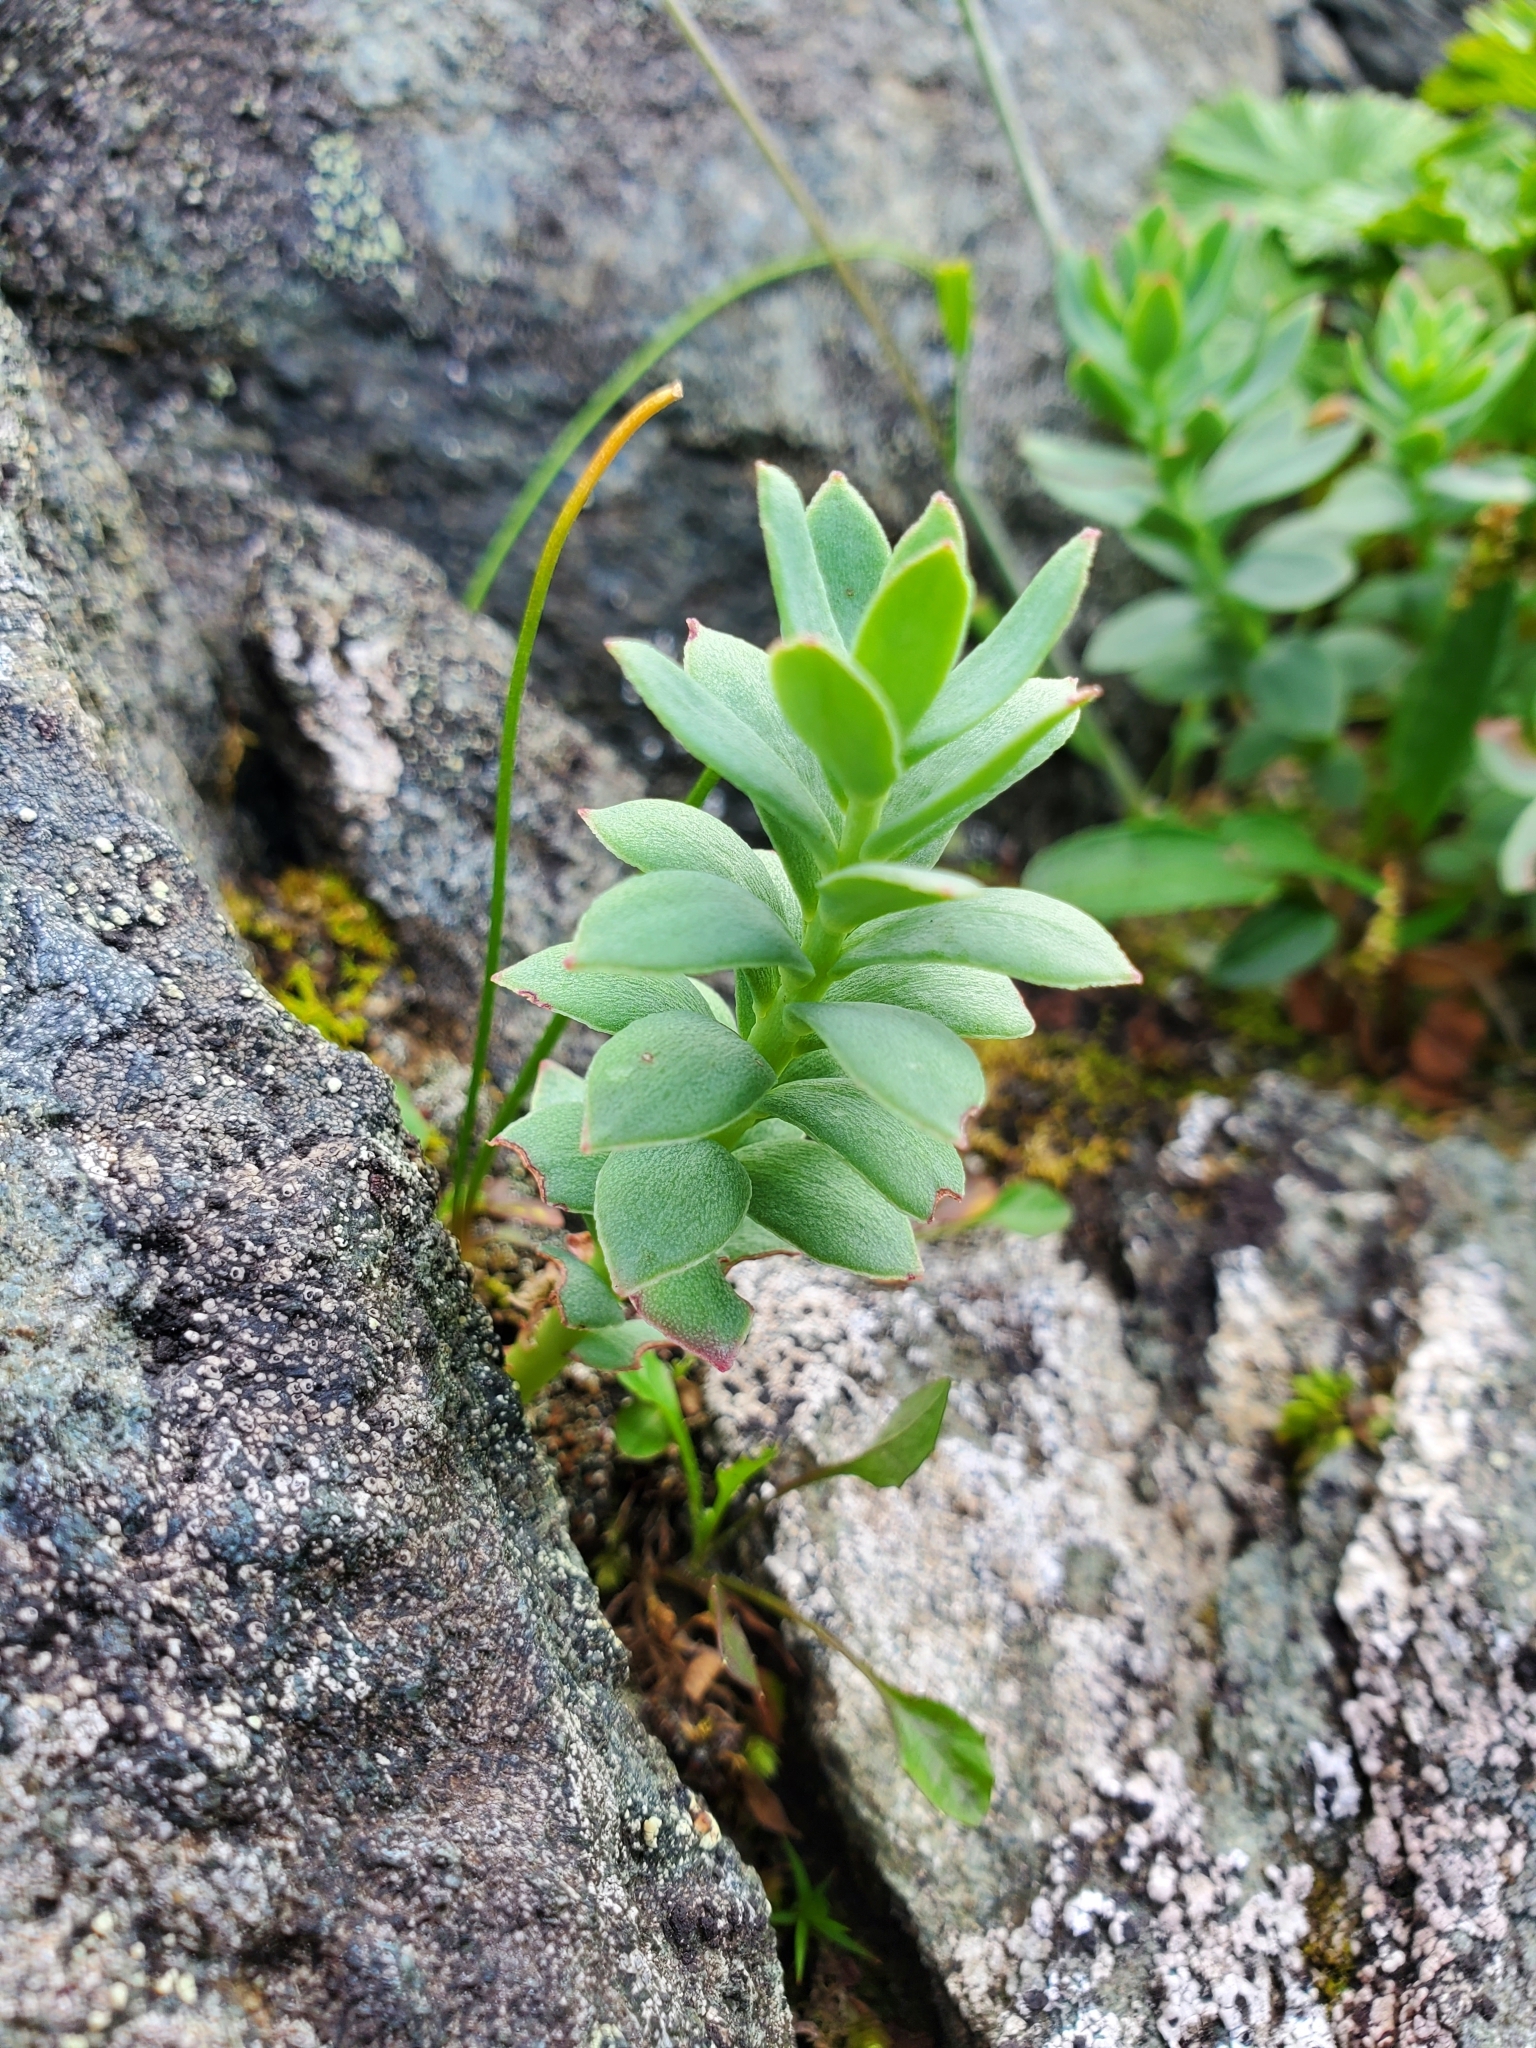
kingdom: Plantae
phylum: Tracheophyta
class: Magnoliopsida
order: Saxifragales
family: Crassulaceae
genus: Rhodiola
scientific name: Rhodiola integrifolia
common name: Western roseroot
